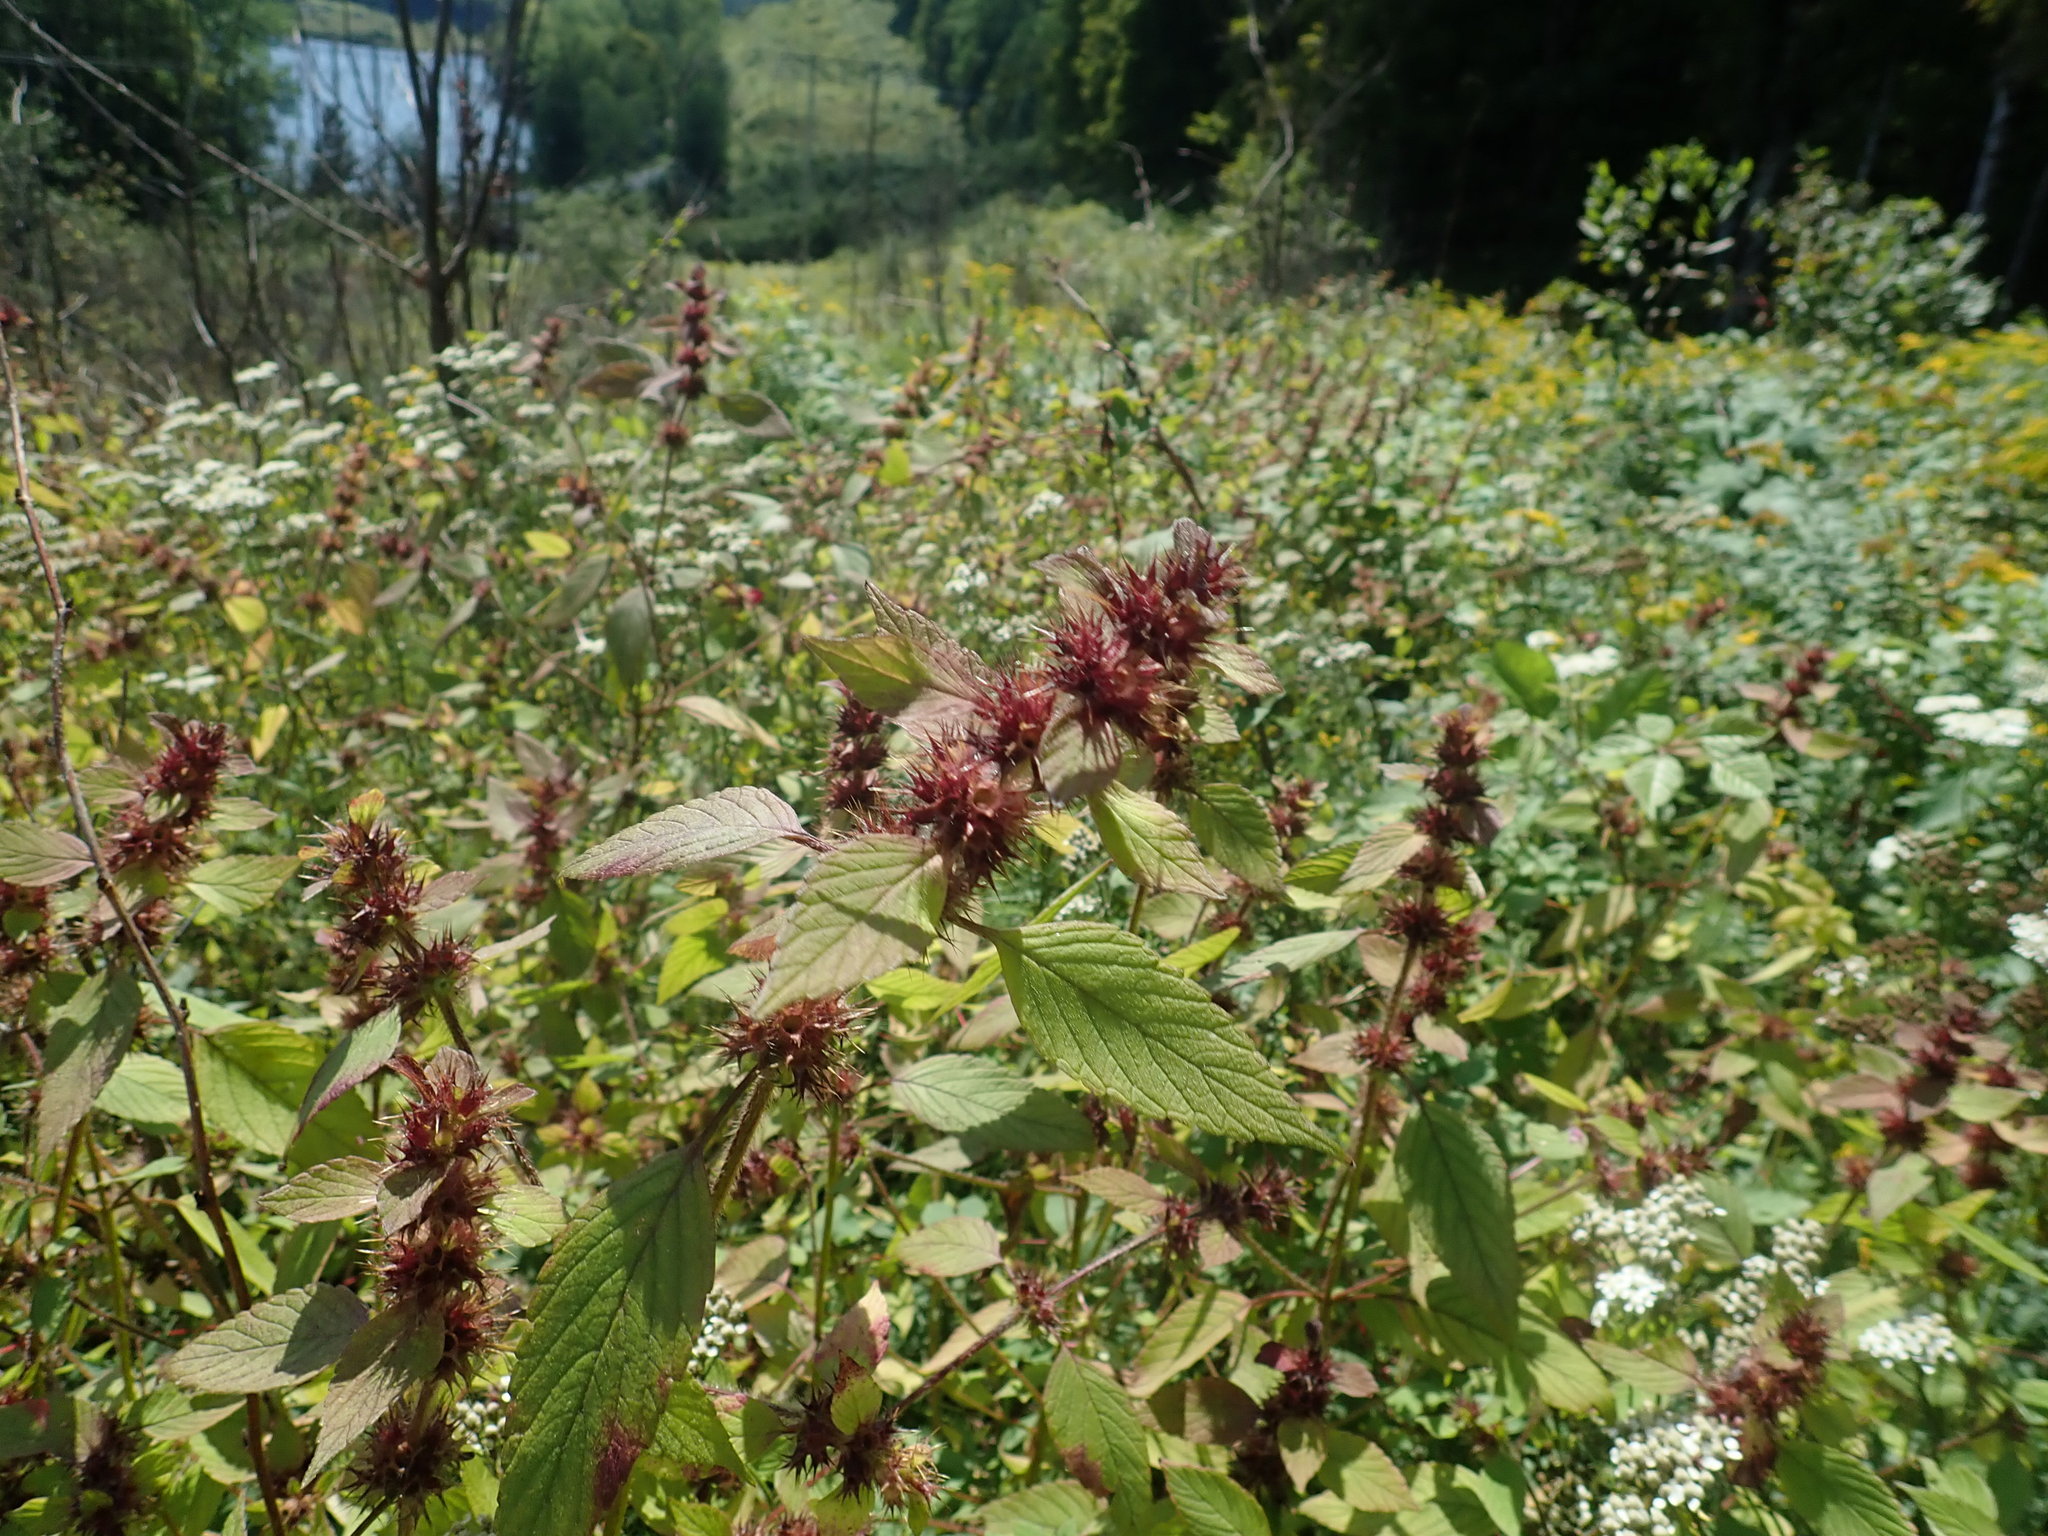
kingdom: Plantae
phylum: Tracheophyta
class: Magnoliopsida
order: Lamiales
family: Lamiaceae
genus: Galeopsis
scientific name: Galeopsis tetrahit
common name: Common hemp-nettle
